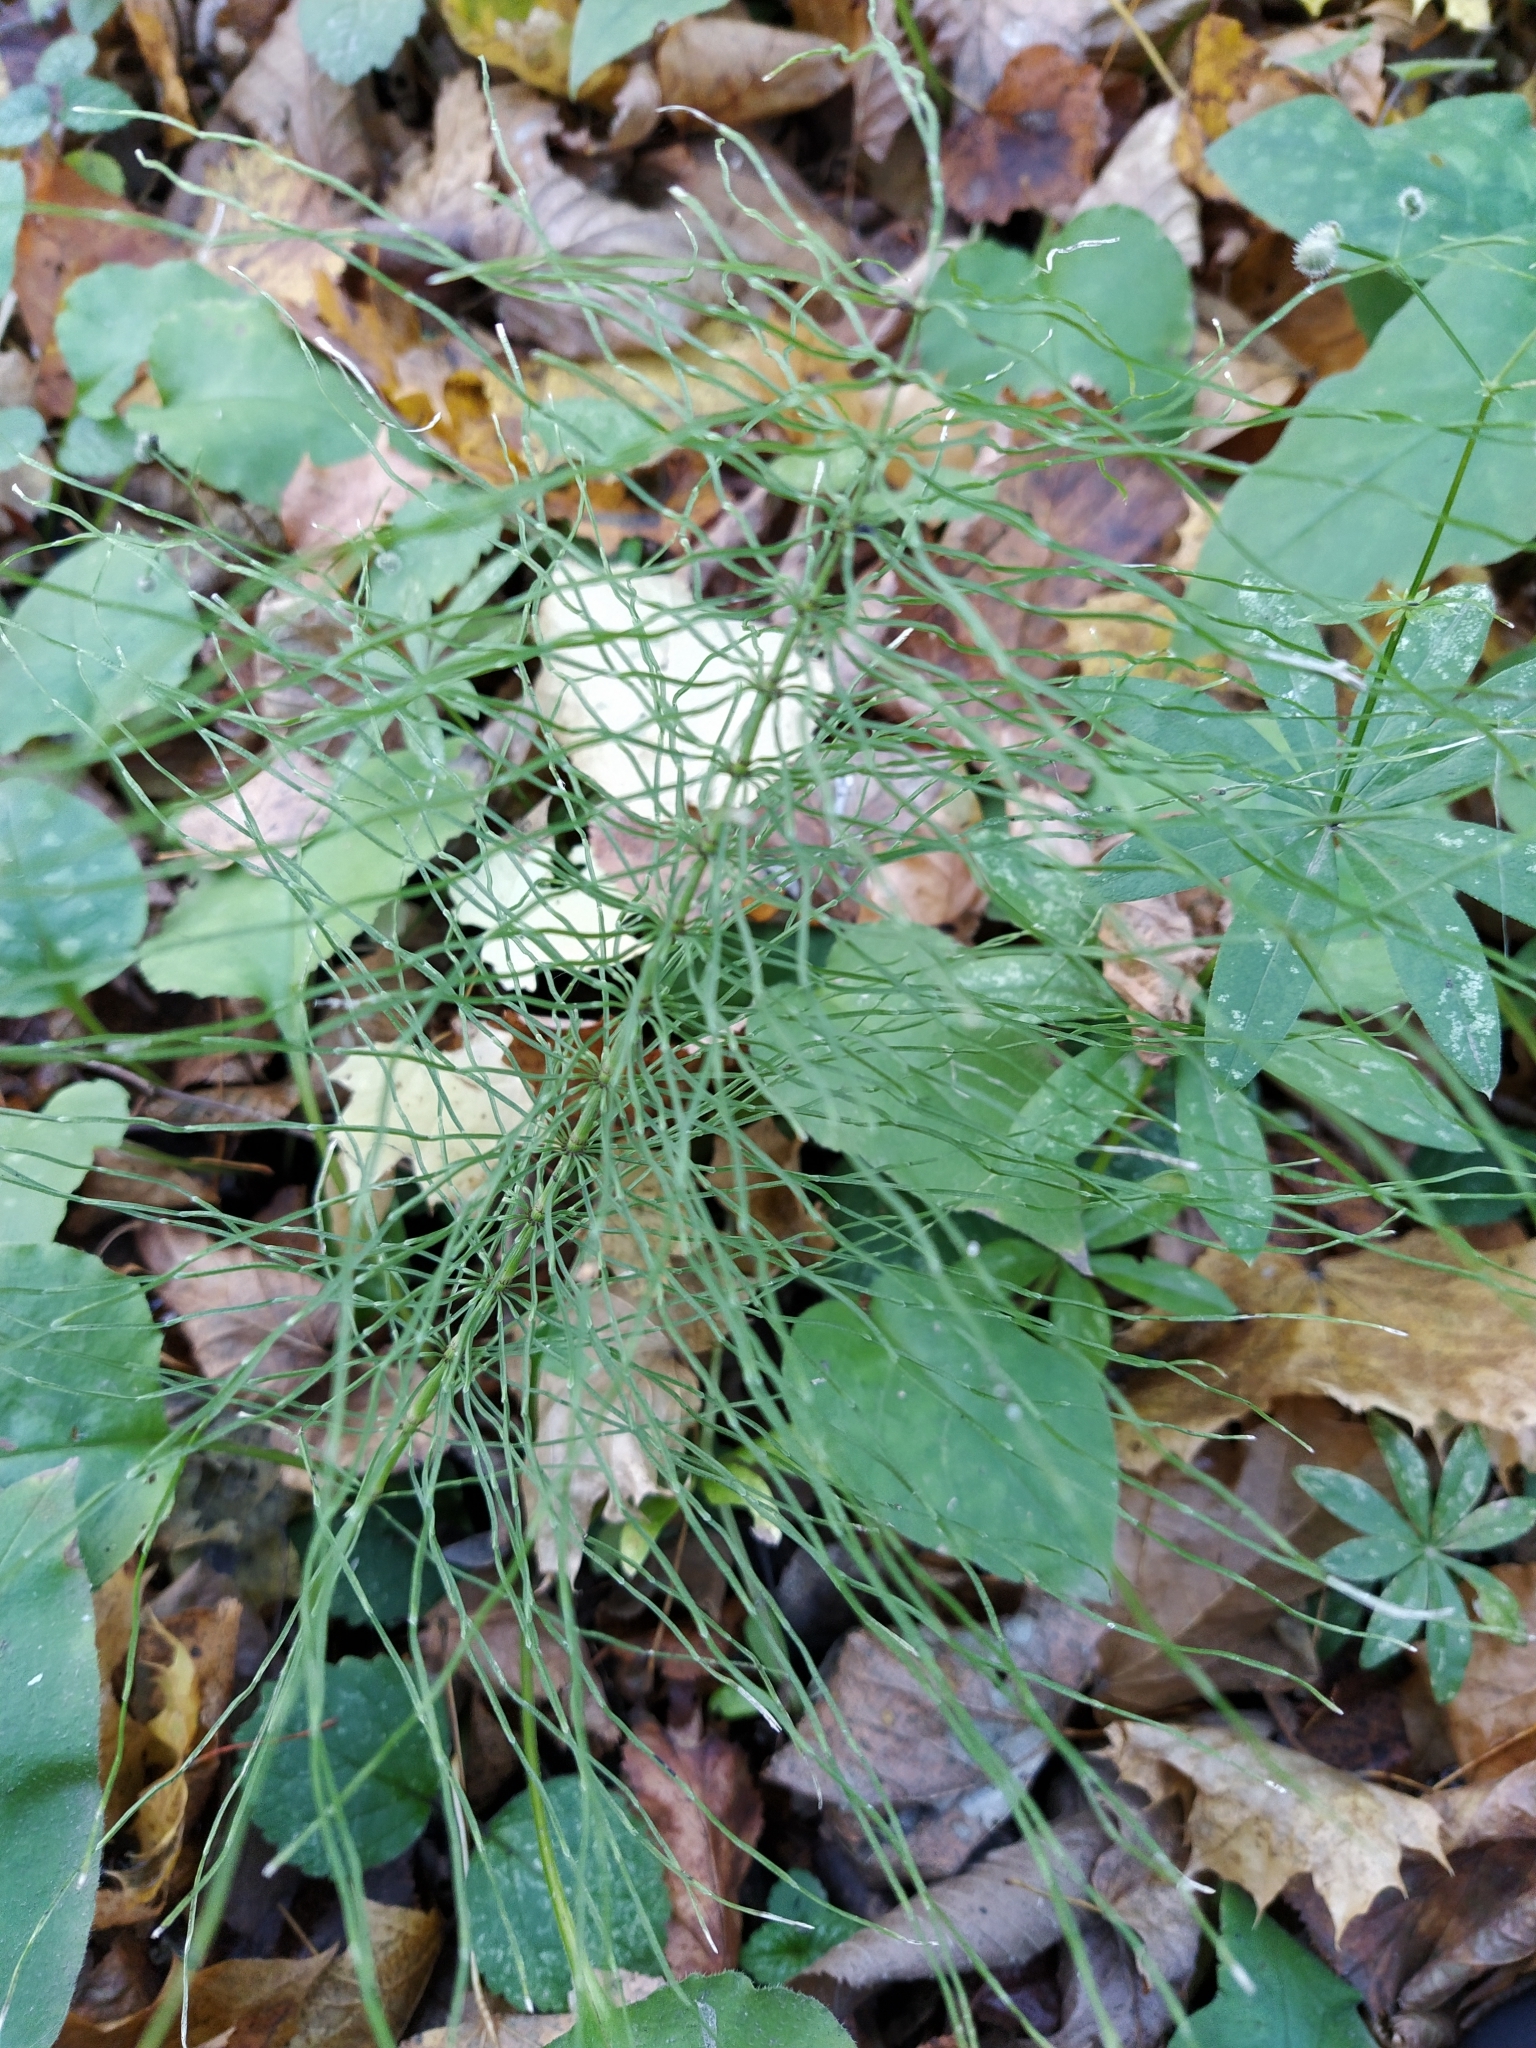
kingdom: Plantae
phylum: Tracheophyta
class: Polypodiopsida
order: Equisetales
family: Equisetaceae
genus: Equisetum
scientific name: Equisetum pratense
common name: Meadow horsetail
